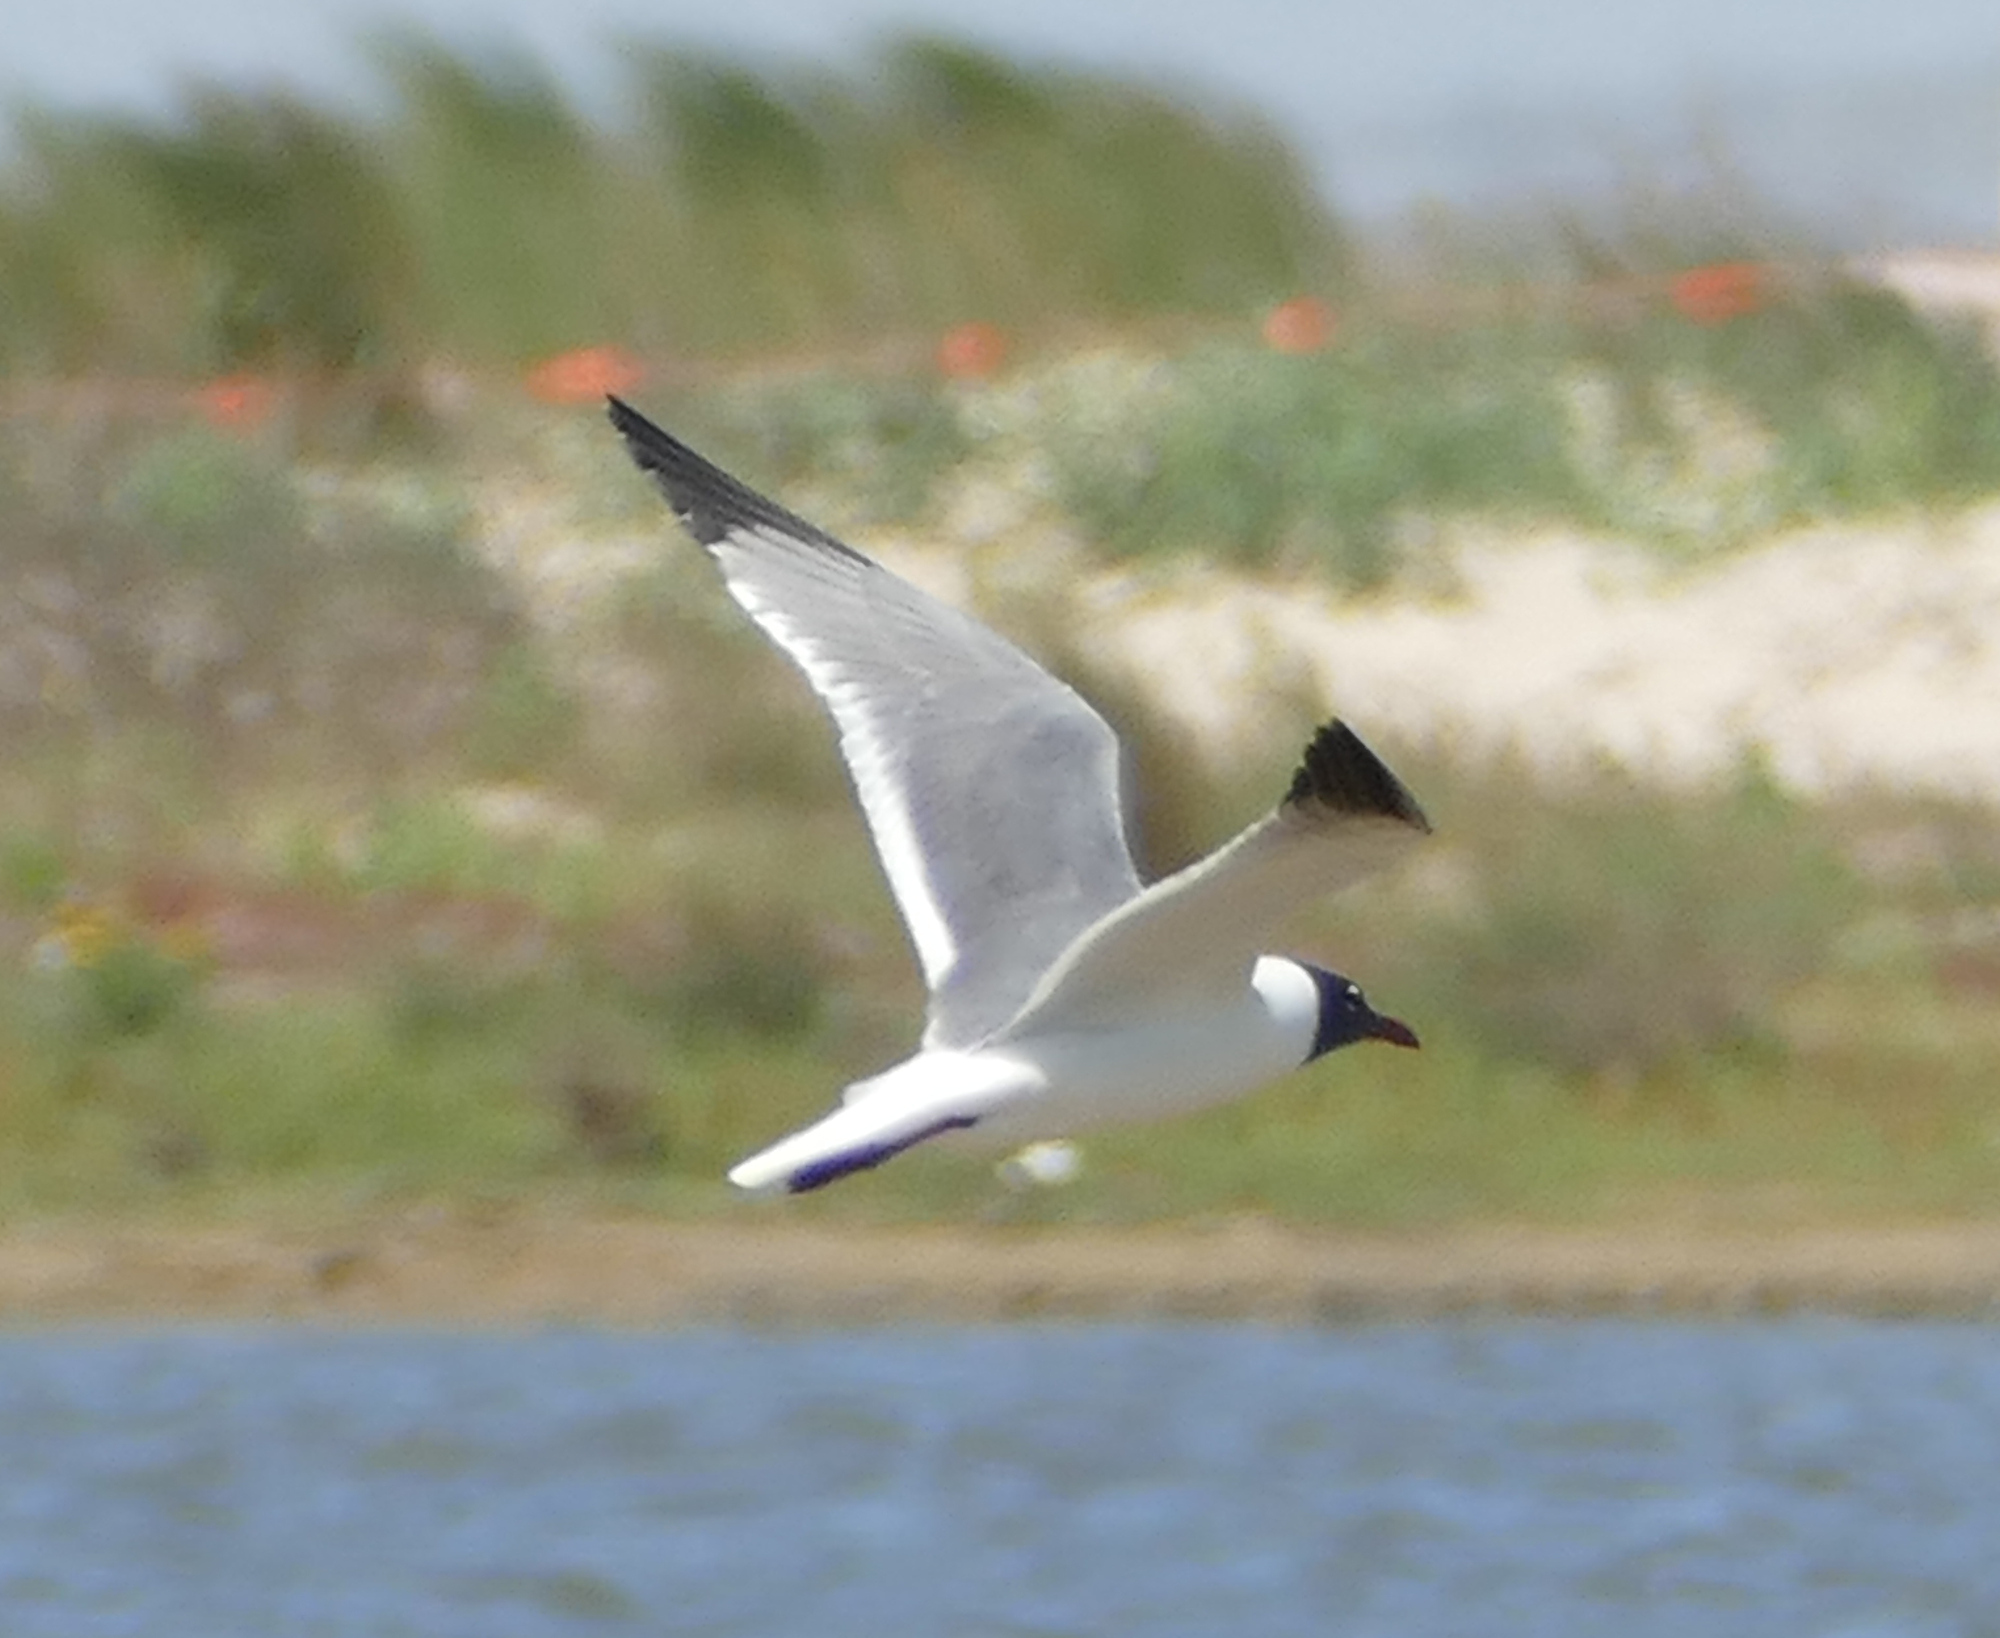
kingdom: Animalia
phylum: Chordata
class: Aves
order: Charadriiformes
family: Laridae
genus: Leucophaeus
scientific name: Leucophaeus atricilla
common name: Laughing gull
